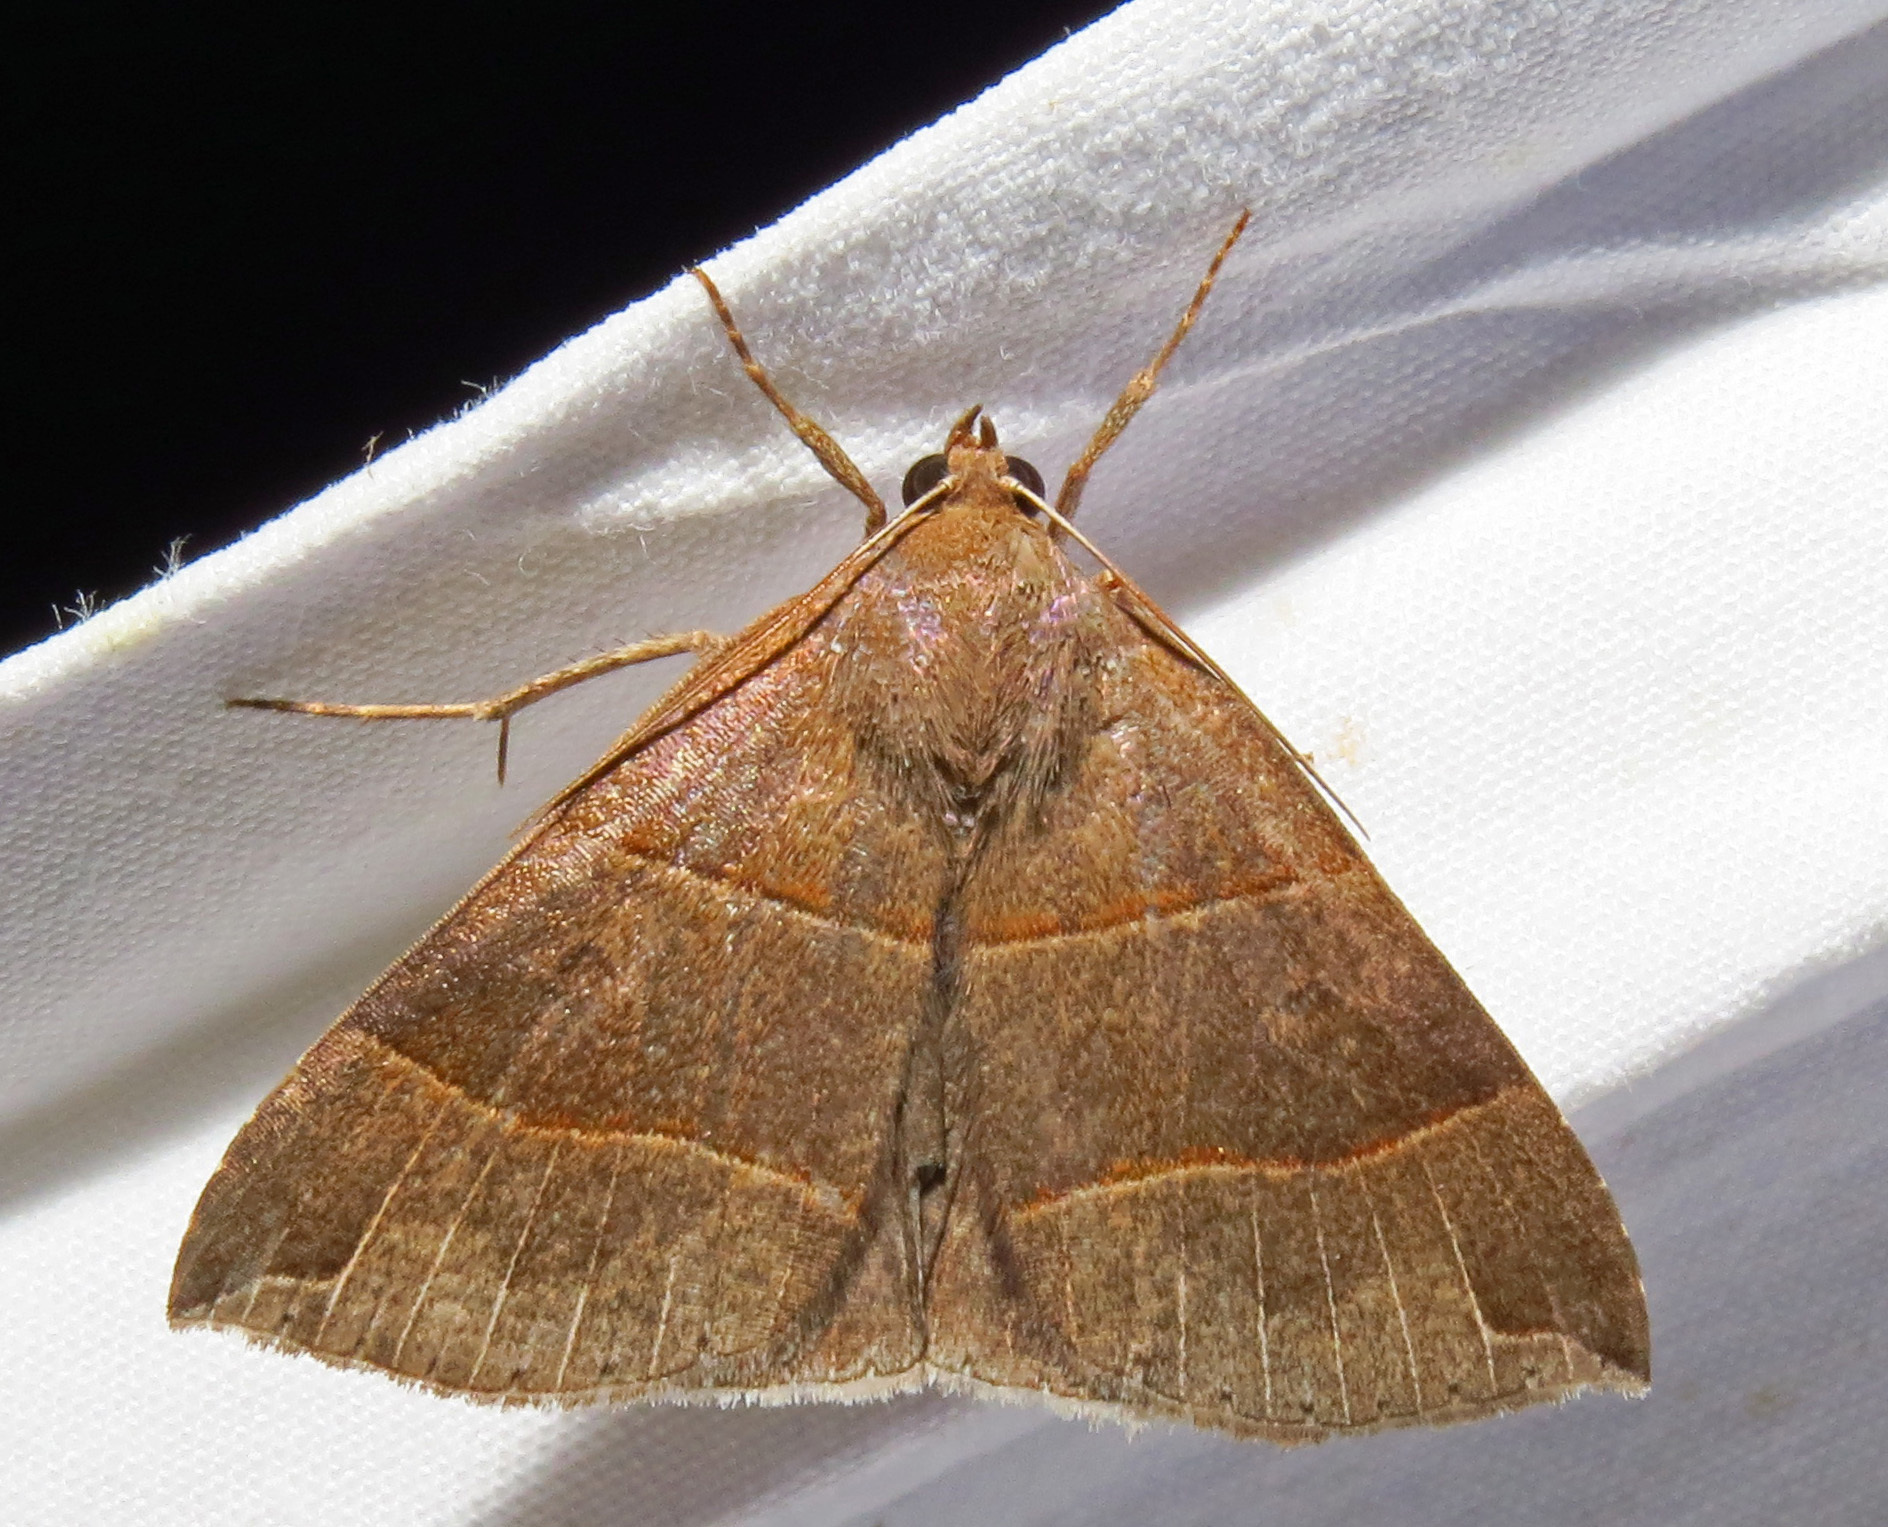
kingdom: Animalia
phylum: Arthropoda
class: Insecta
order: Lepidoptera
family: Erebidae
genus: Parallelia
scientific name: Parallelia bistriaris
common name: Maple looper moth
